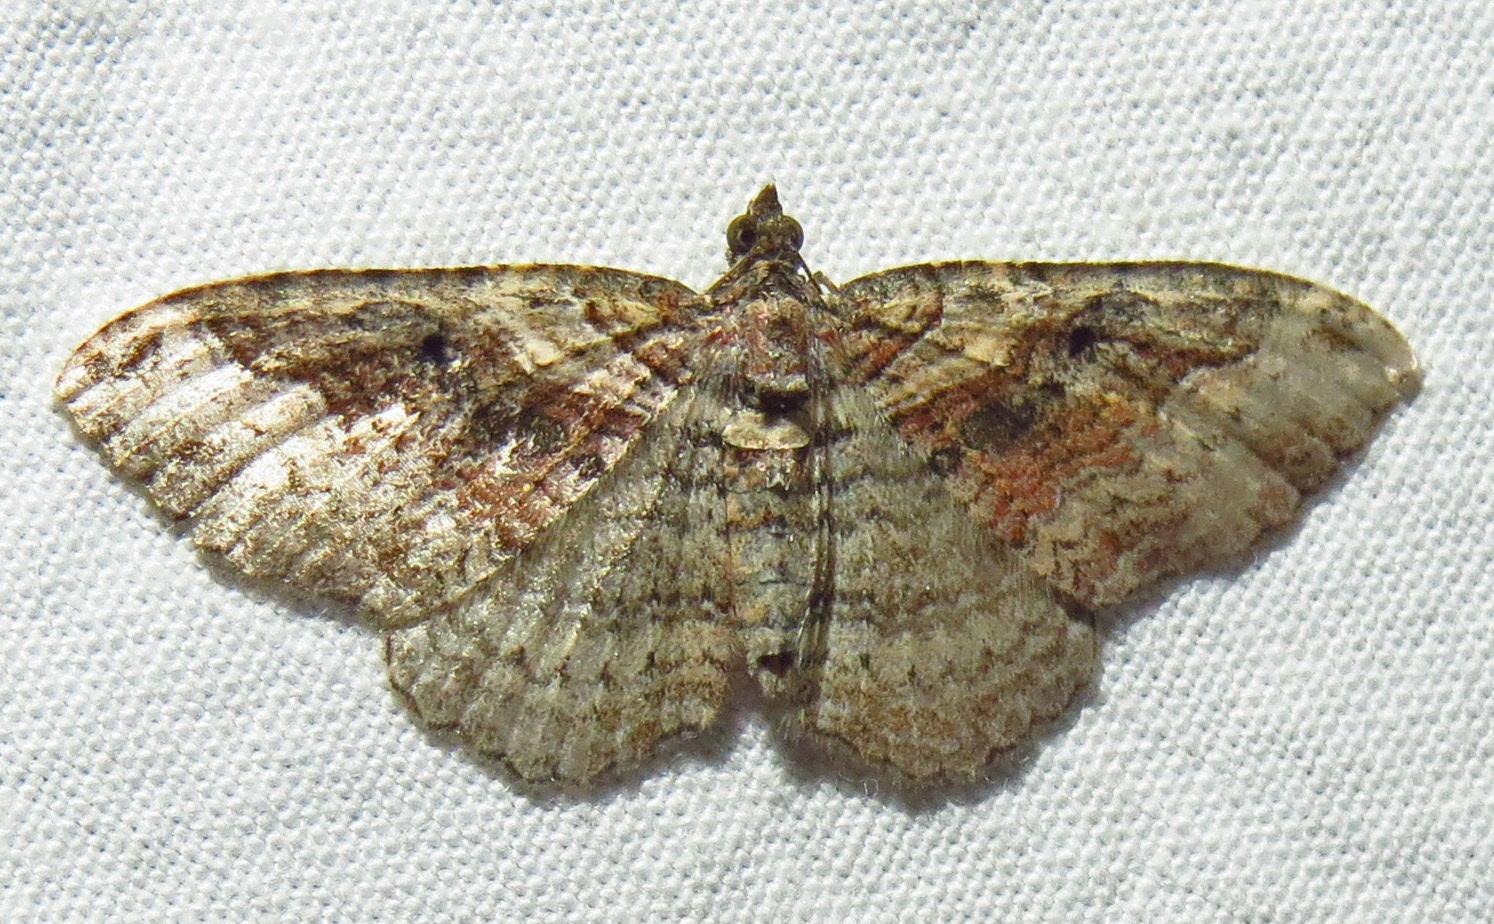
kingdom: Animalia
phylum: Arthropoda
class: Insecta
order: Lepidoptera
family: Geometridae
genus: Costaconvexa
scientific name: Costaconvexa centrostrigaria
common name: Bent-line carpet
